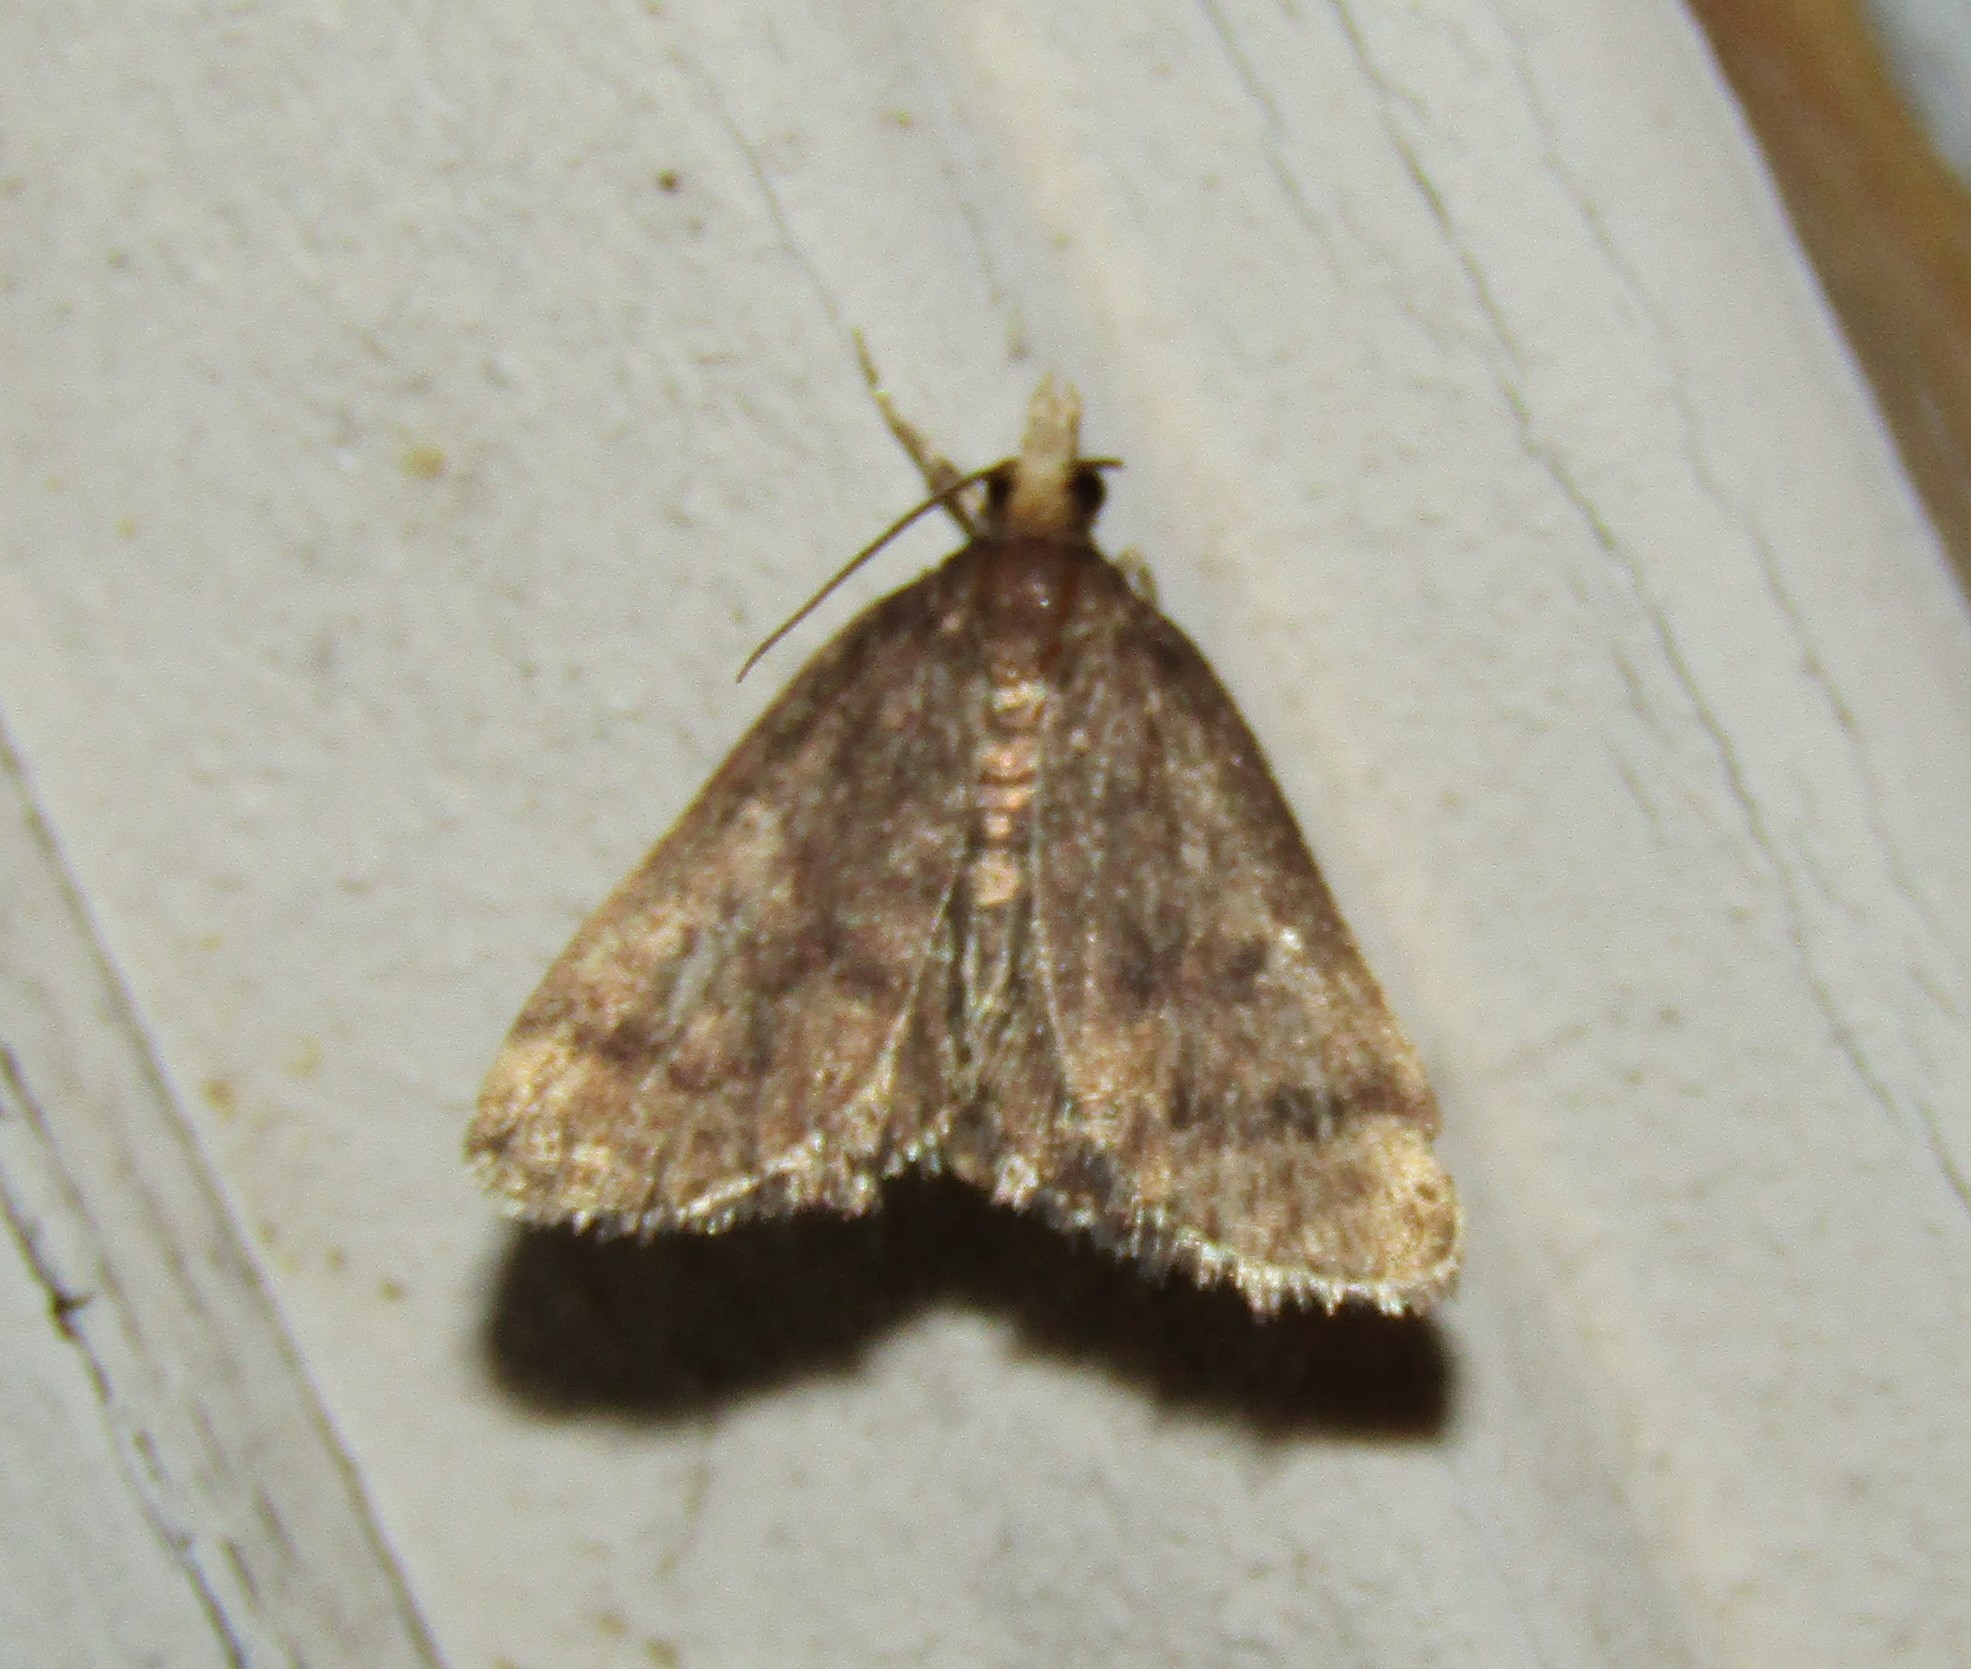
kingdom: Animalia
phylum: Arthropoda
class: Insecta
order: Lepidoptera
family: Crambidae
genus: Pyrausta
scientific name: Pyrausta merrickalis
